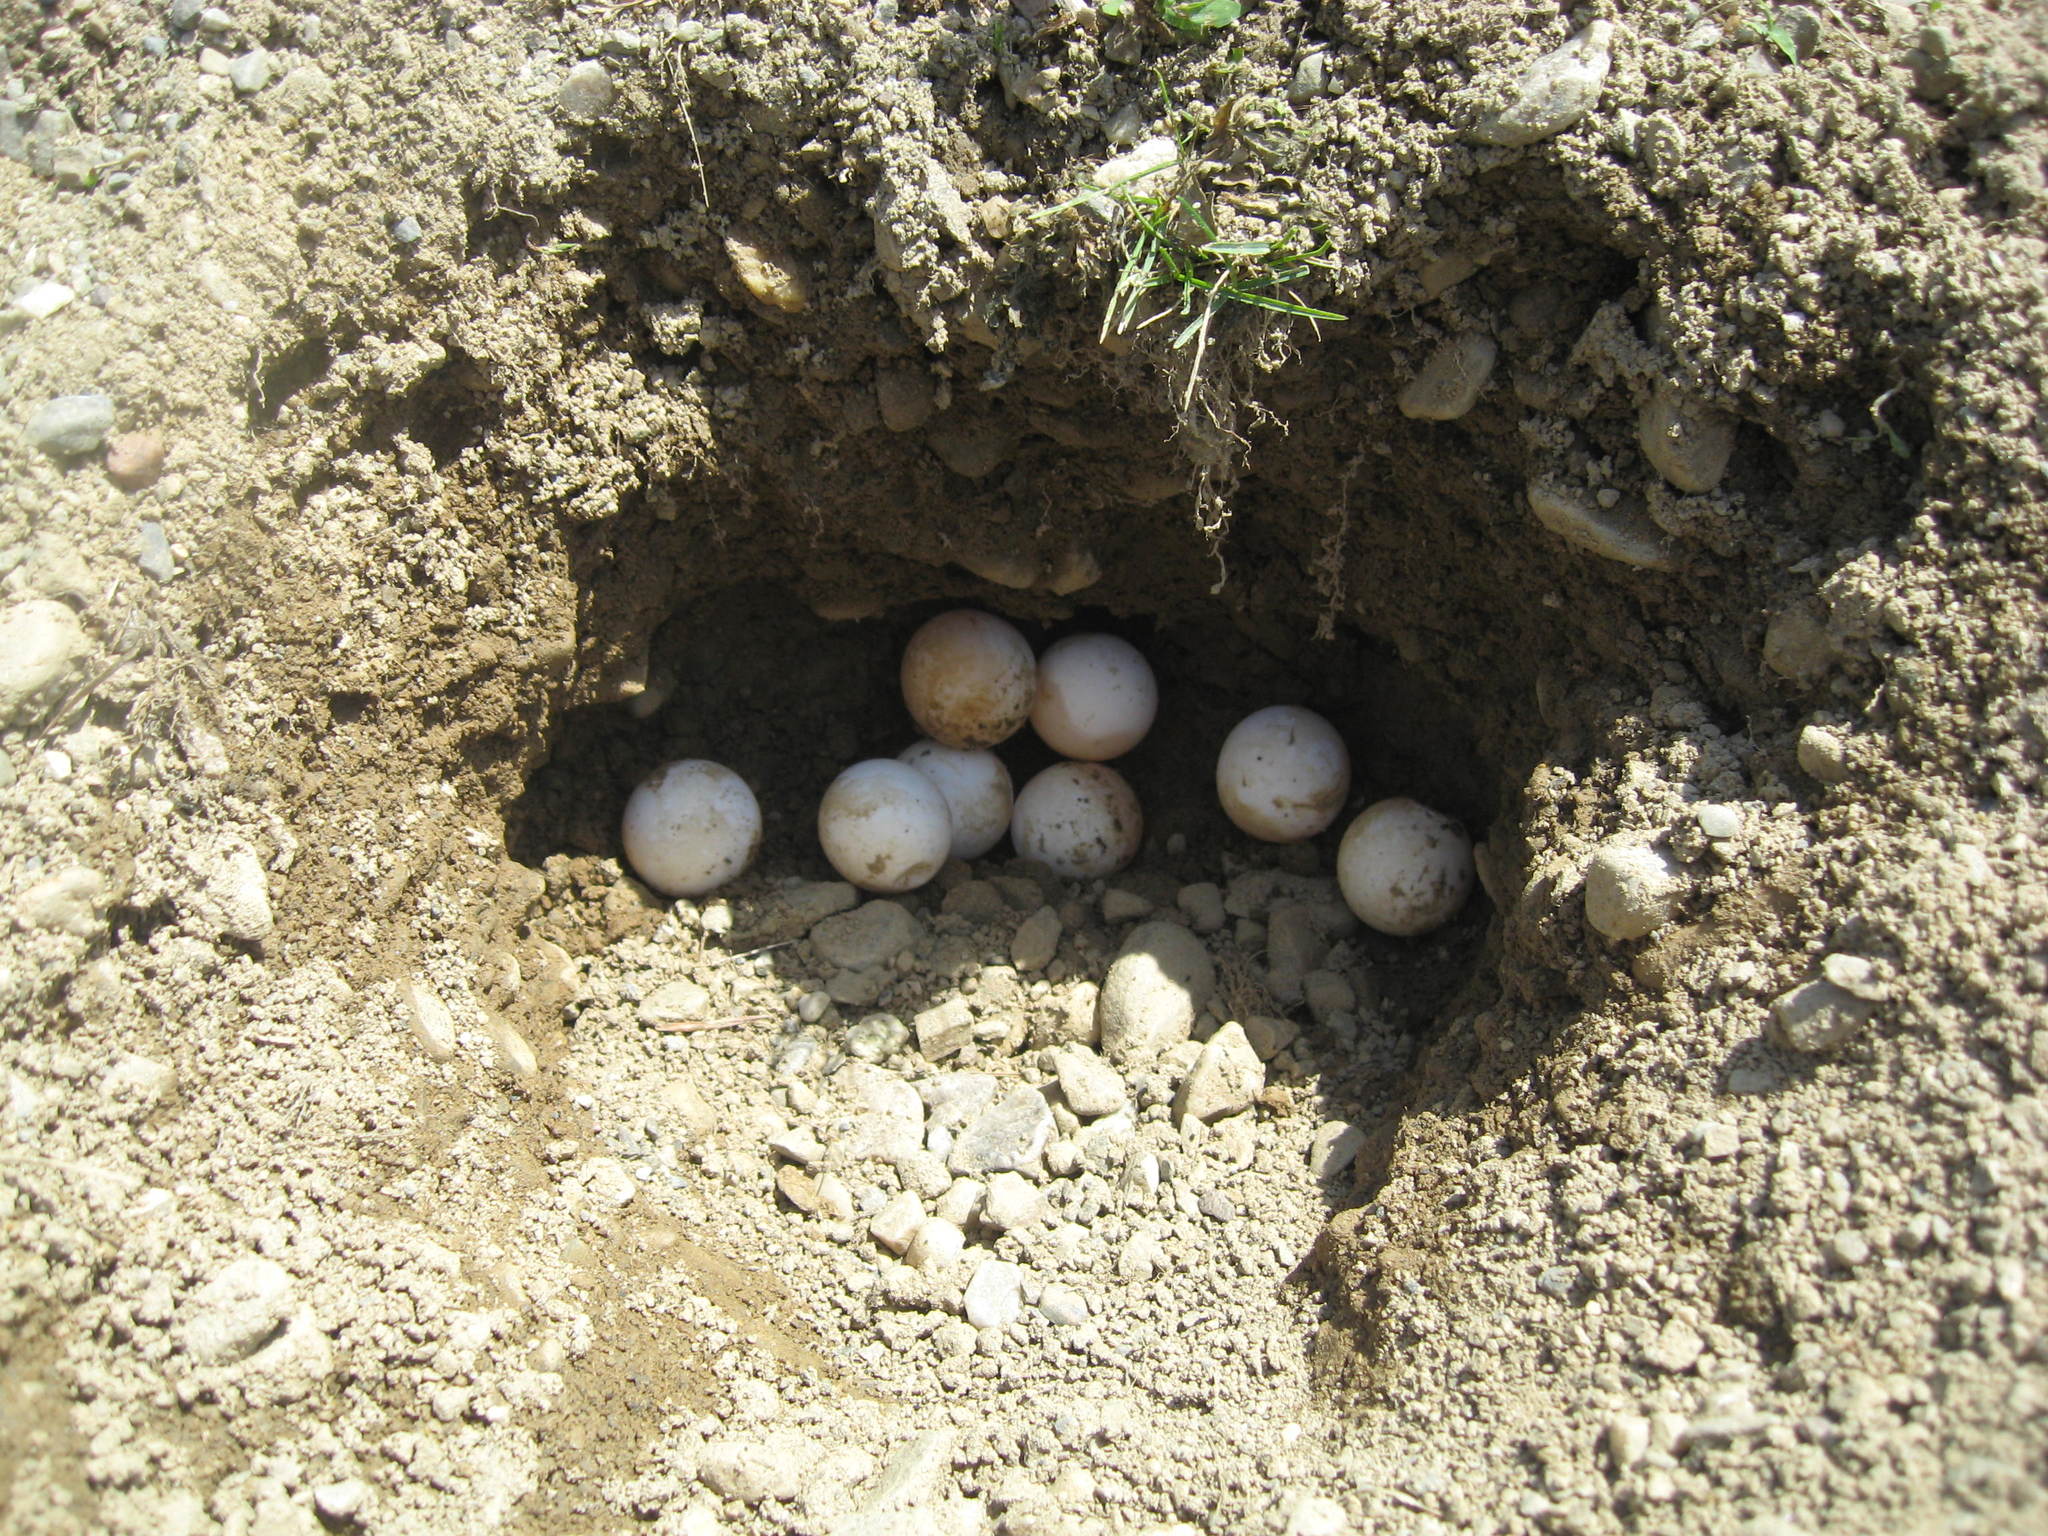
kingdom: Animalia
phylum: Chordata
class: Testudines
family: Chelydridae
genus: Chelydra
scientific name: Chelydra serpentina
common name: Common snapping turtle
